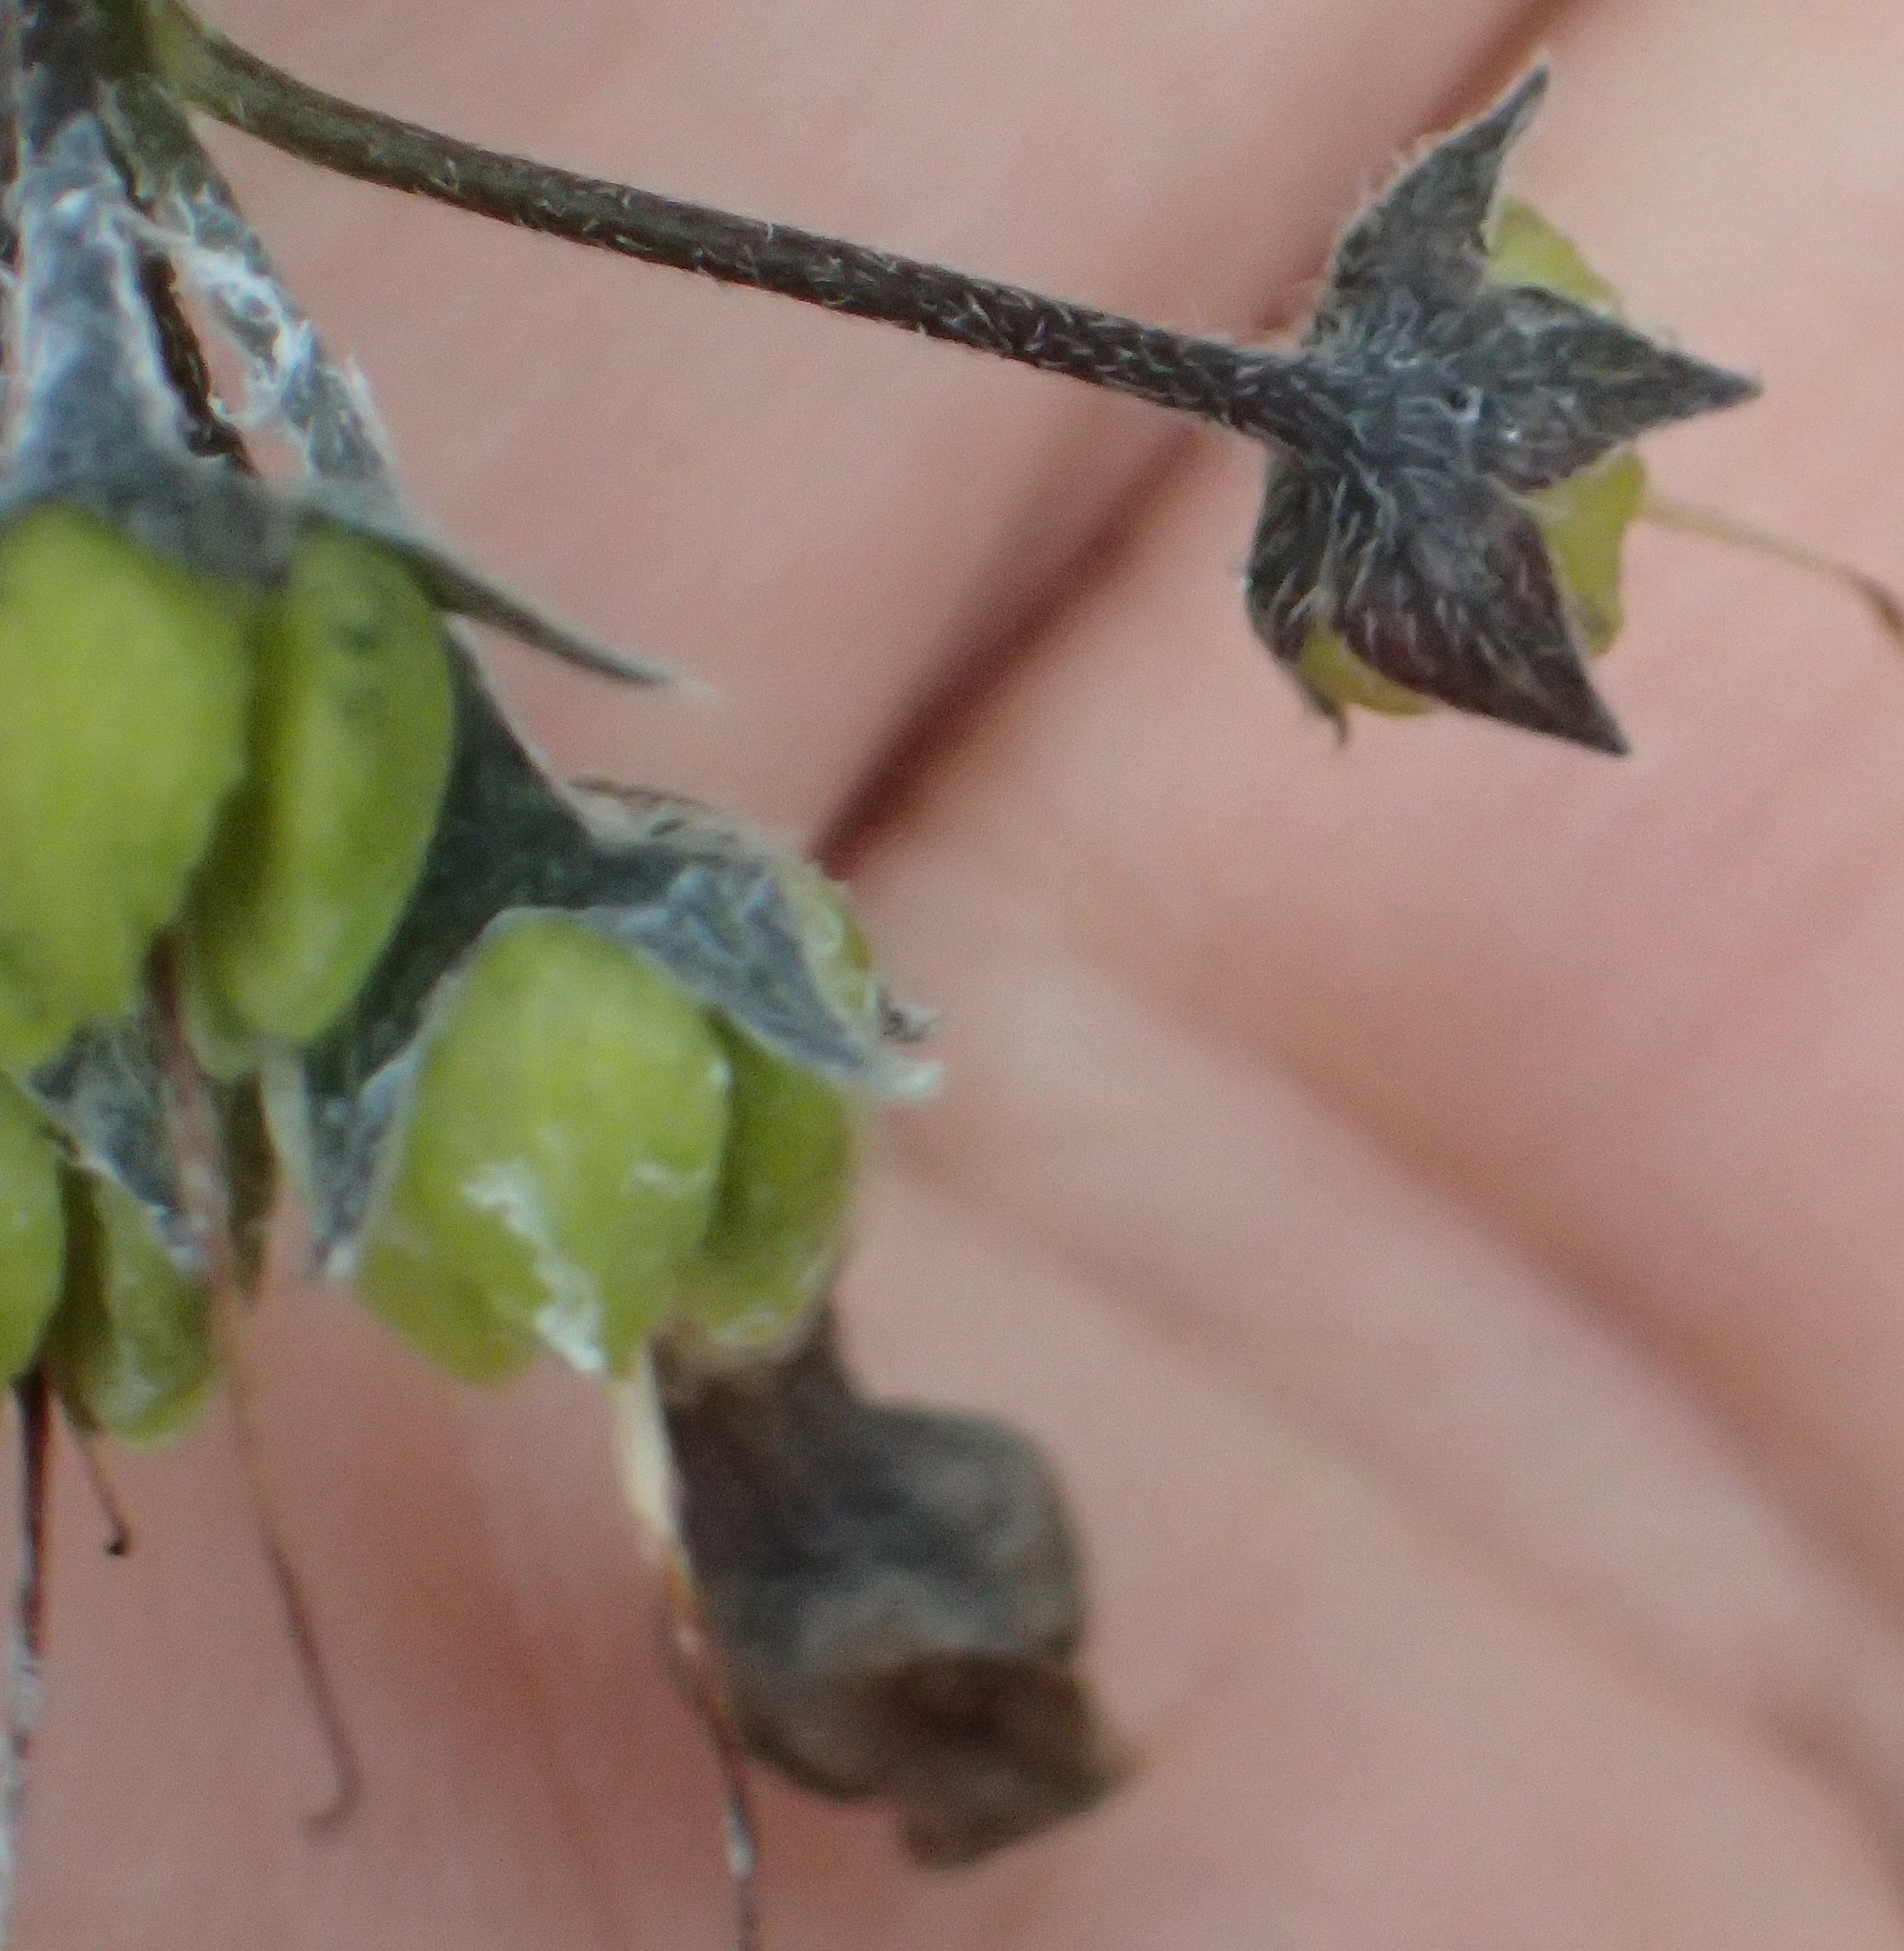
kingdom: Plantae
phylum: Tracheophyta
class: Magnoliopsida
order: Boraginales
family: Boraginaceae
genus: Mertensia
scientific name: Mertensia paniculata
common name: Panicled bluebells
